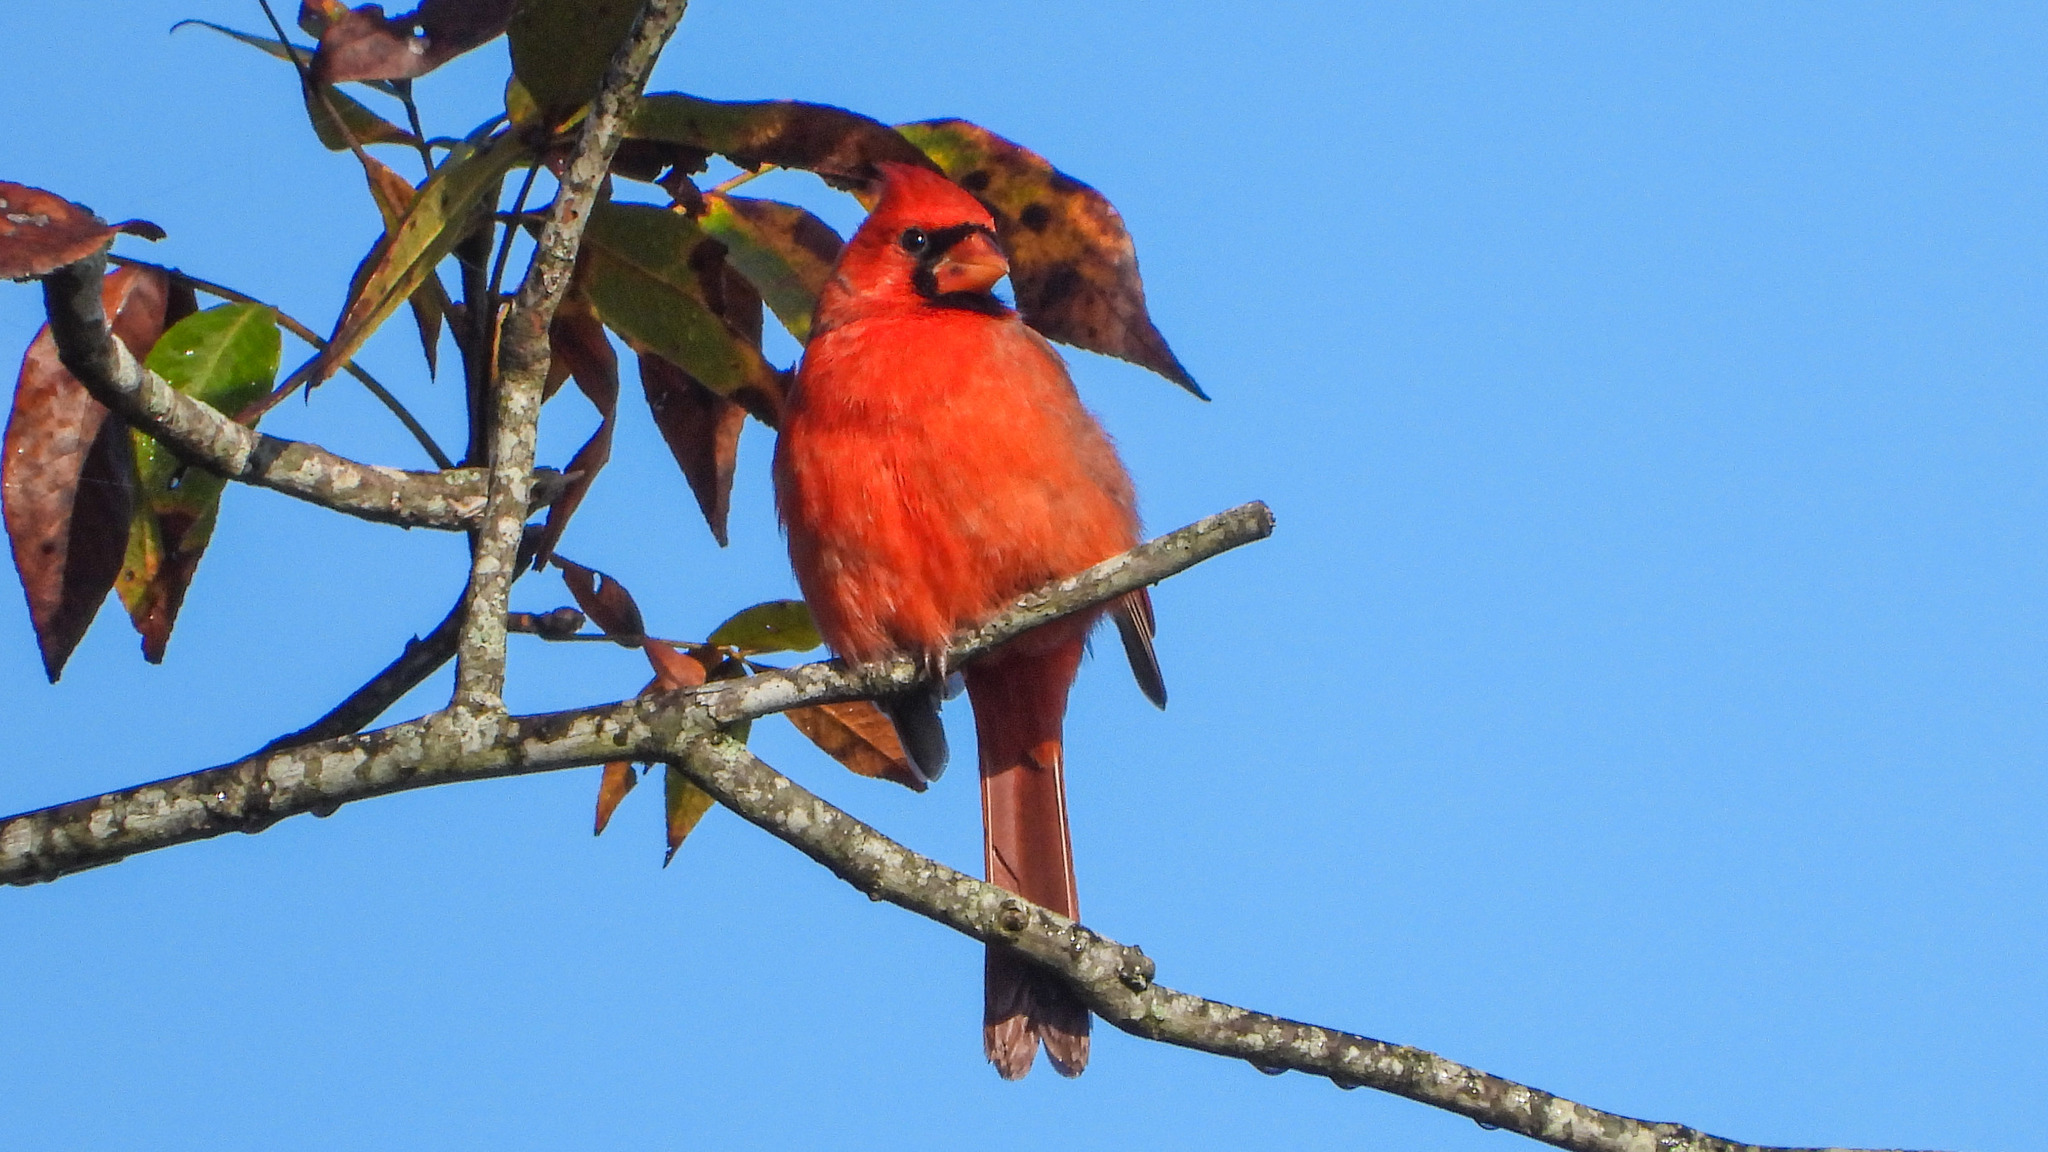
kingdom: Animalia
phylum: Chordata
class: Aves
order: Passeriformes
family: Cardinalidae
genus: Cardinalis
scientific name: Cardinalis cardinalis
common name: Northern cardinal
